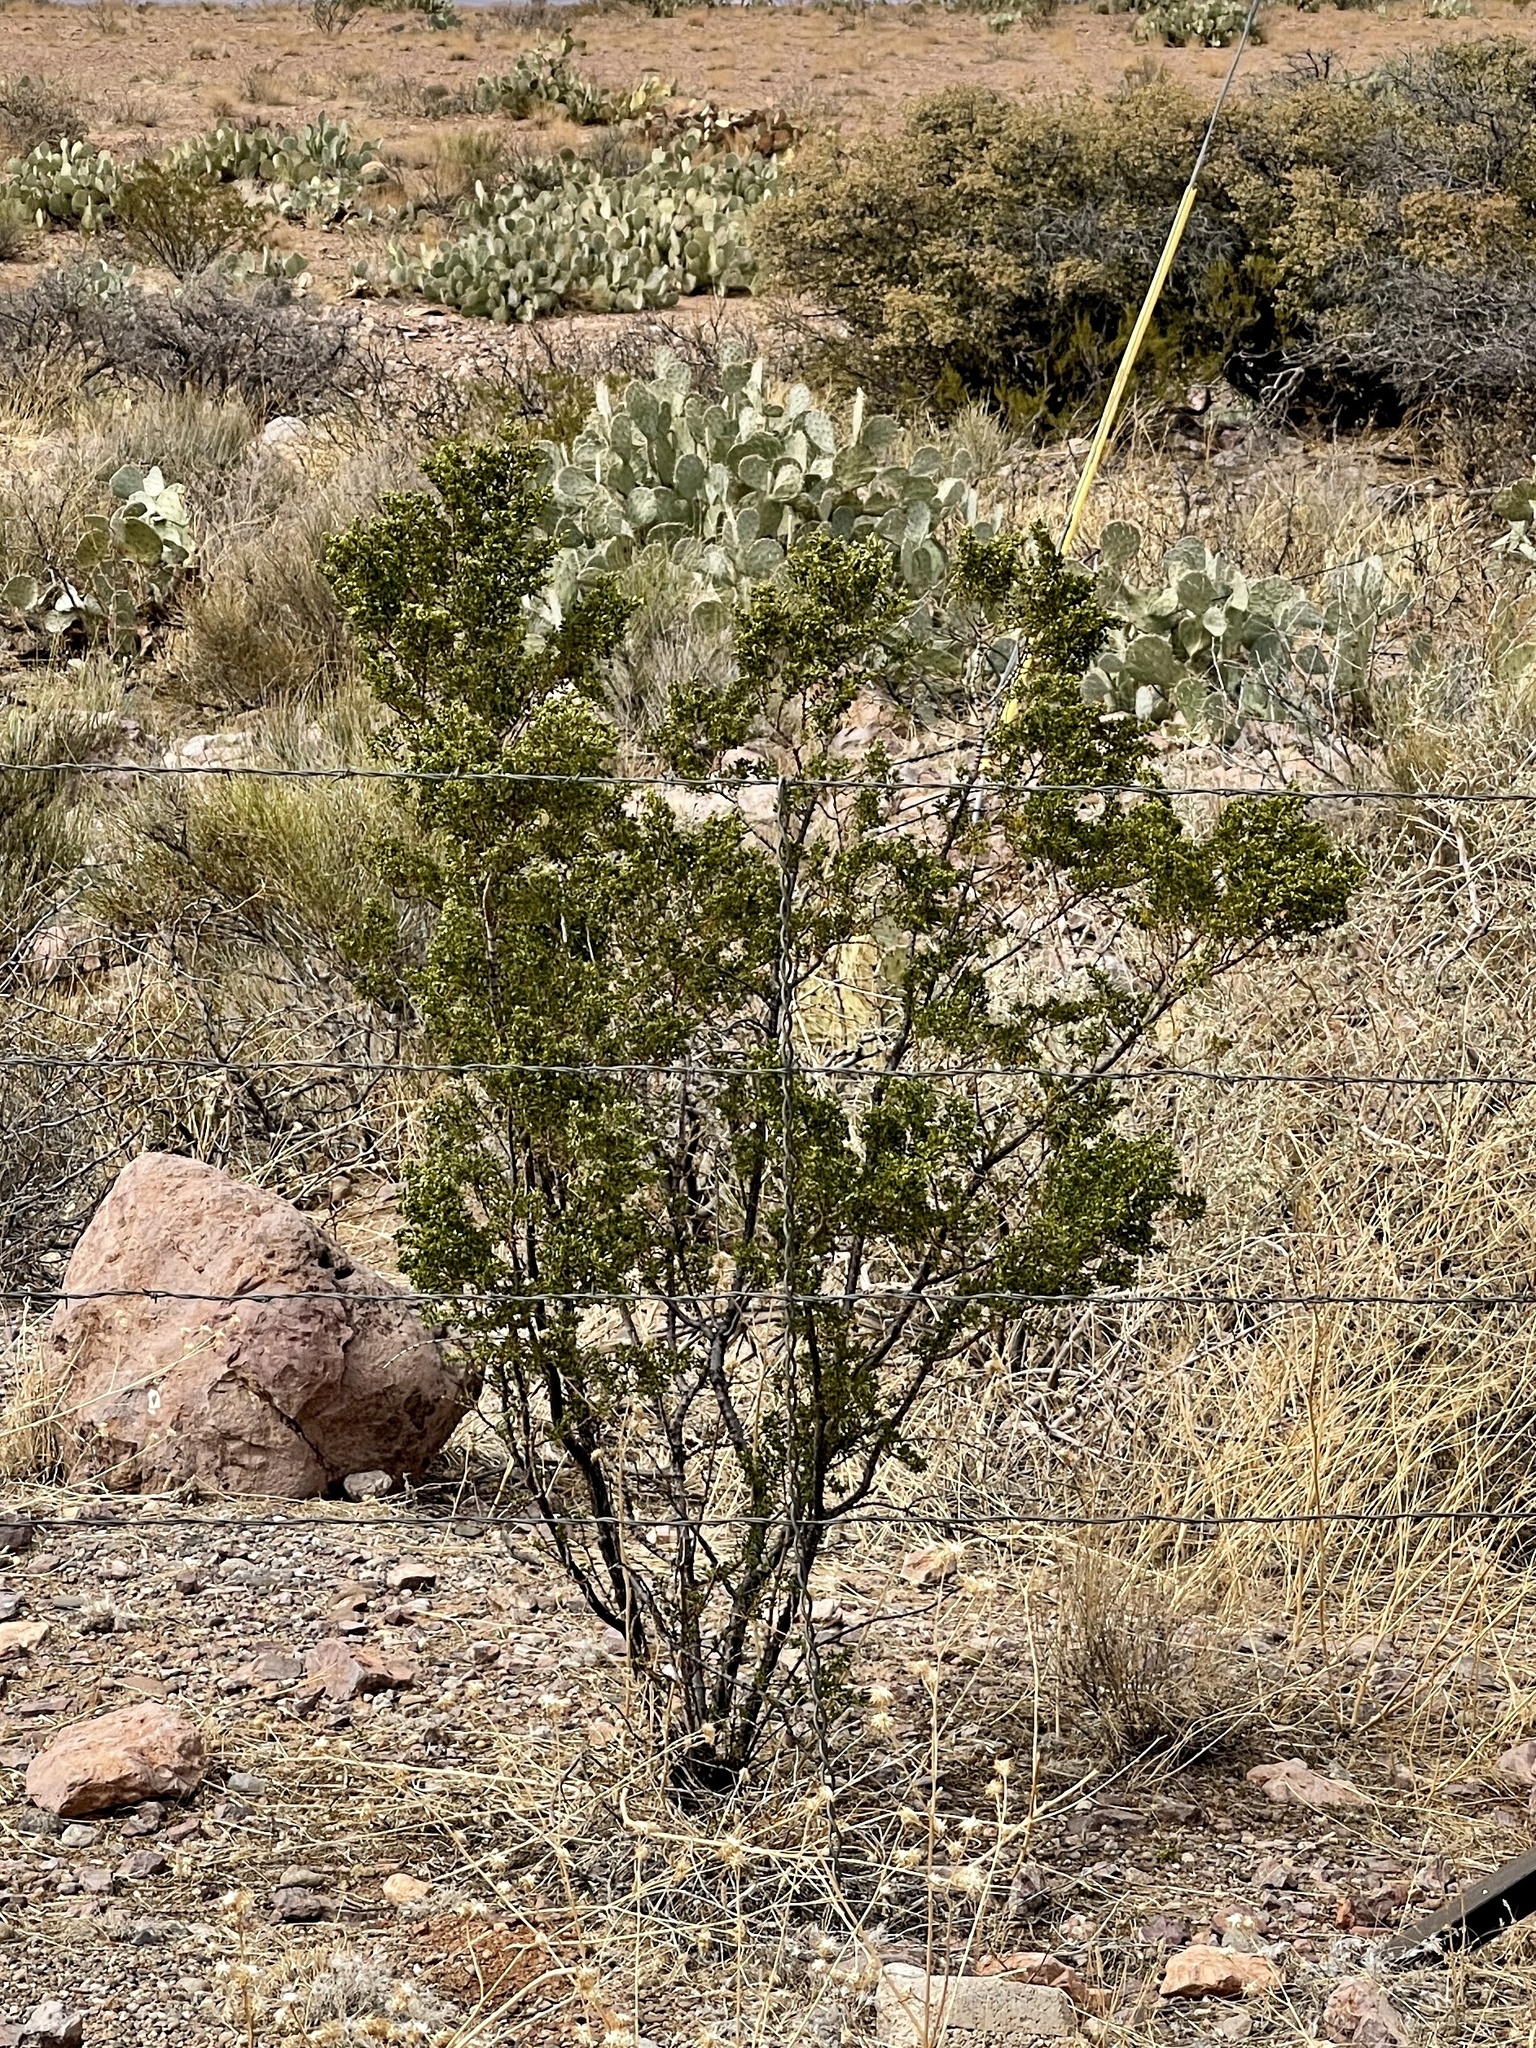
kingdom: Plantae
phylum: Tracheophyta
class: Magnoliopsida
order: Zygophyllales
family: Zygophyllaceae
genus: Larrea
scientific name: Larrea tridentata
